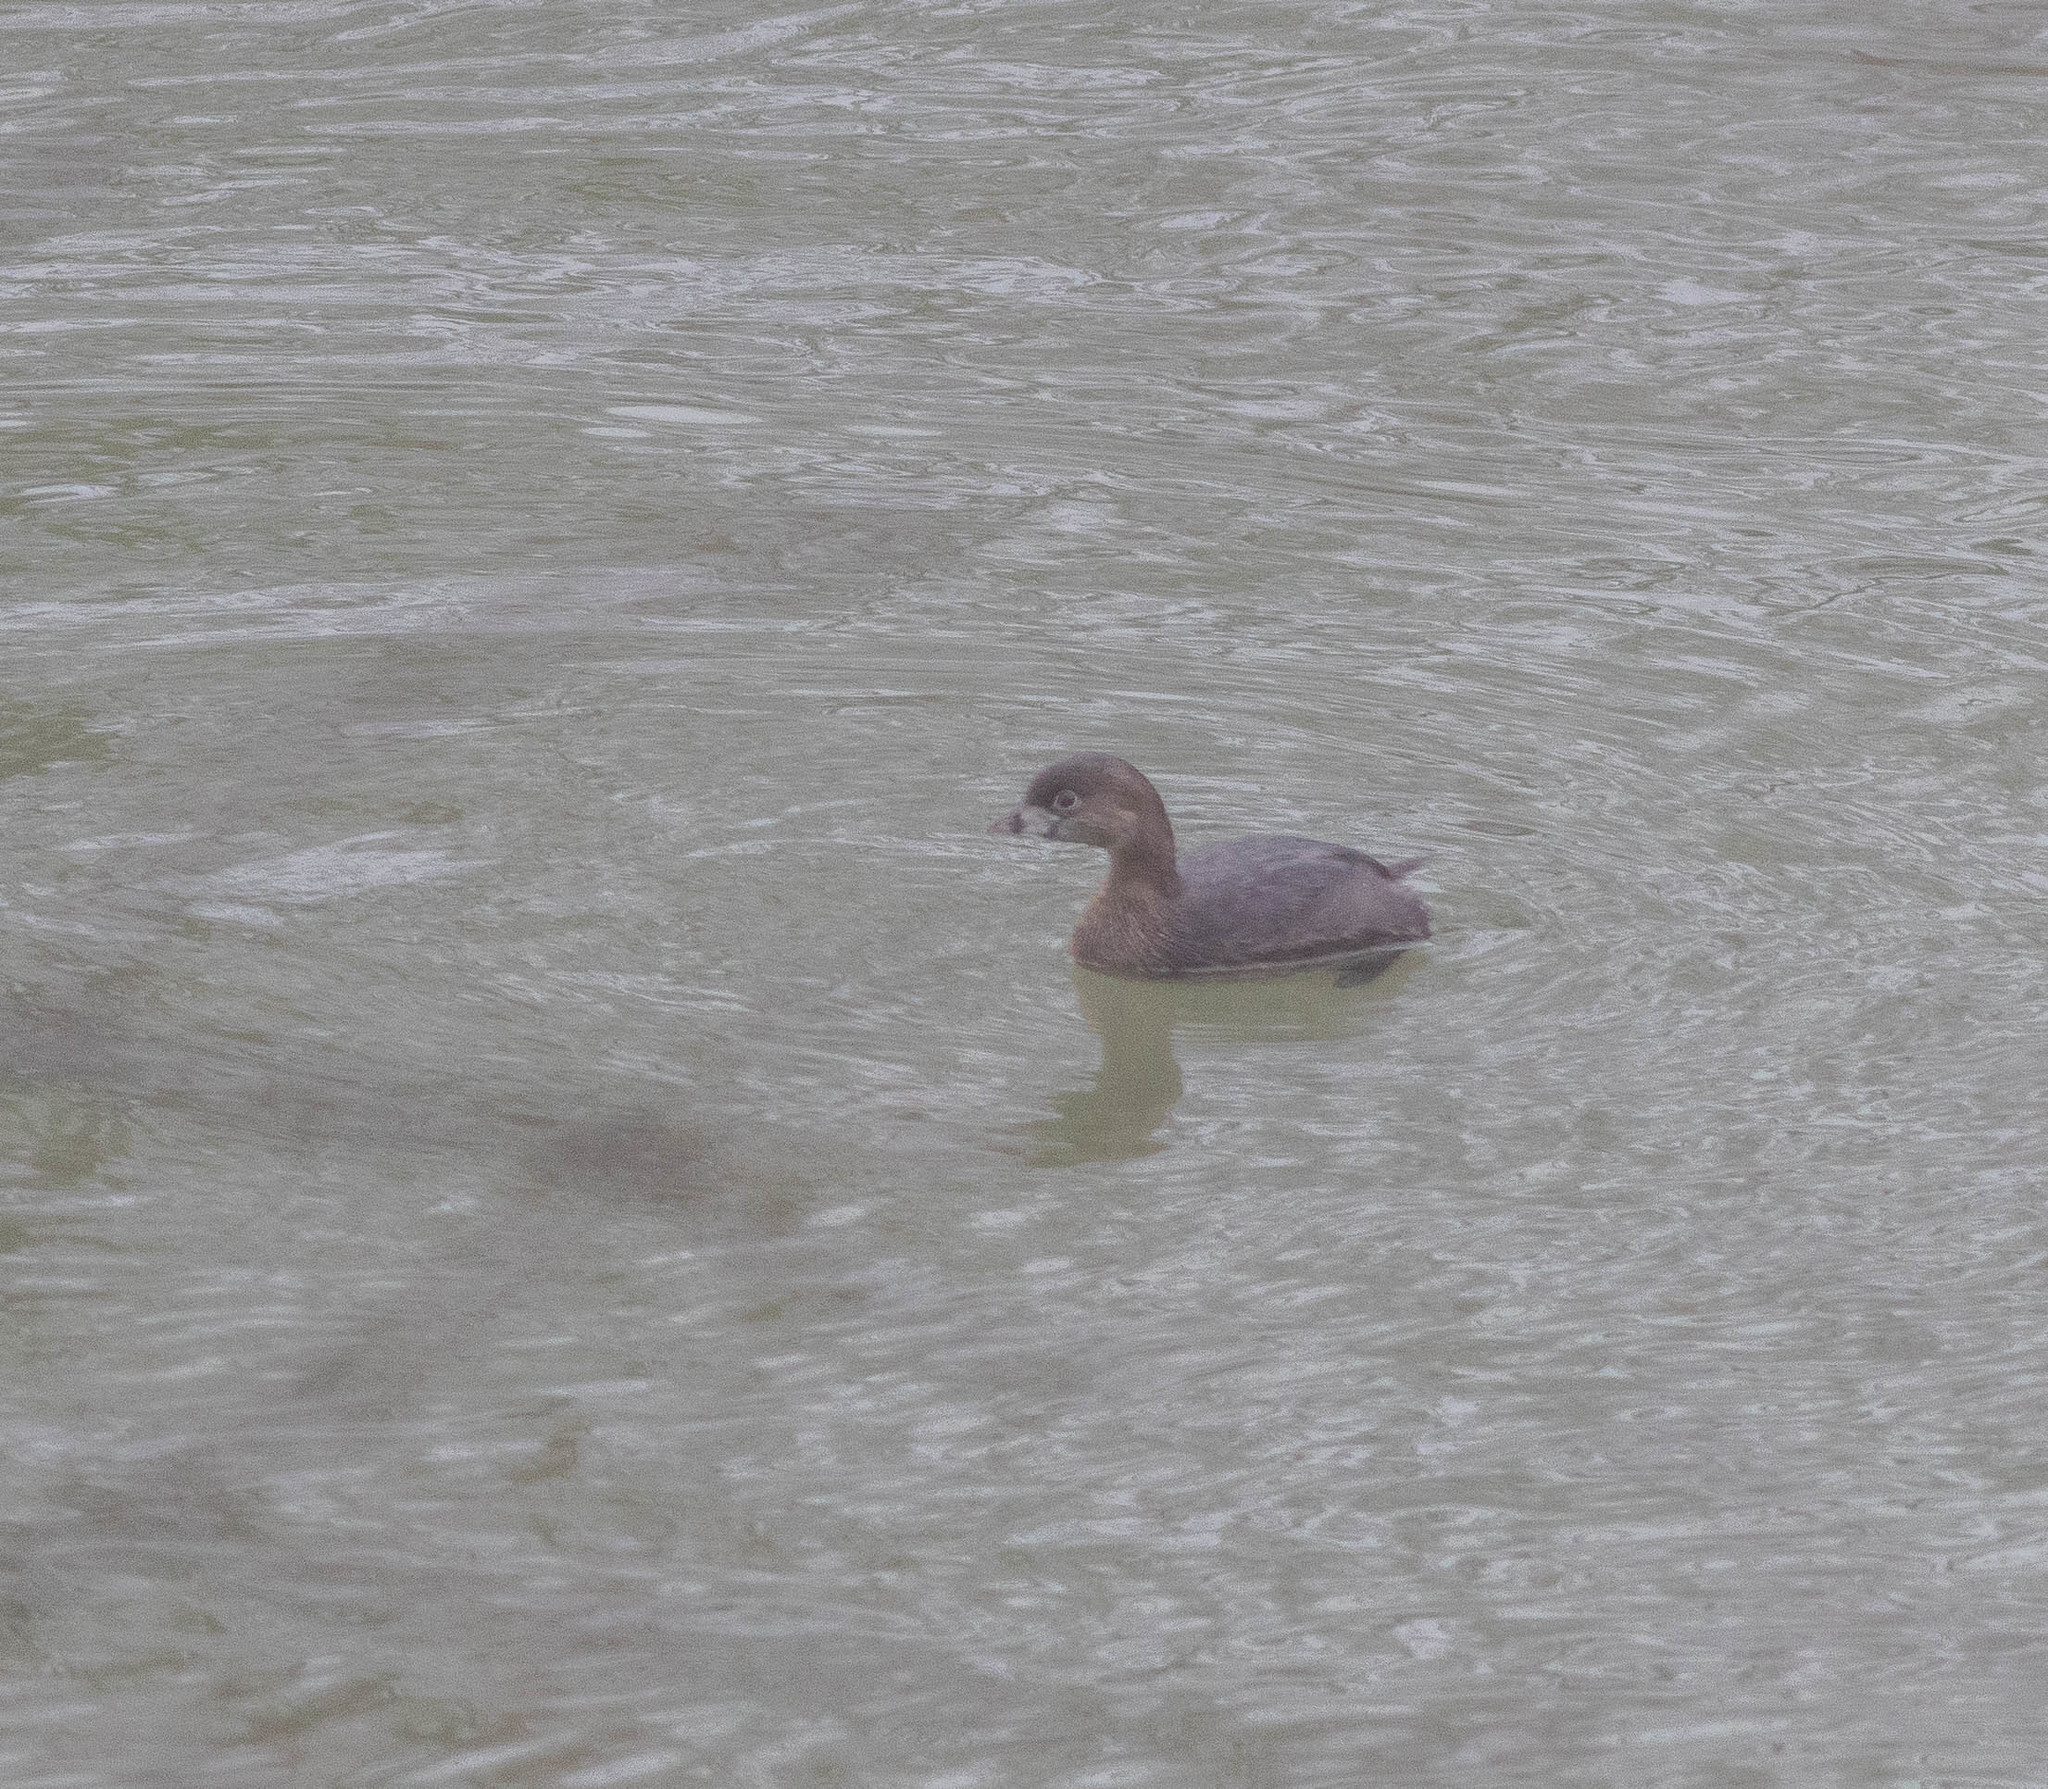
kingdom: Animalia
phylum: Chordata
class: Aves
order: Podicipediformes
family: Podicipedidae
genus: Podilymbus
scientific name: Podilymbus podiceps
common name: Pied-billed grebe
